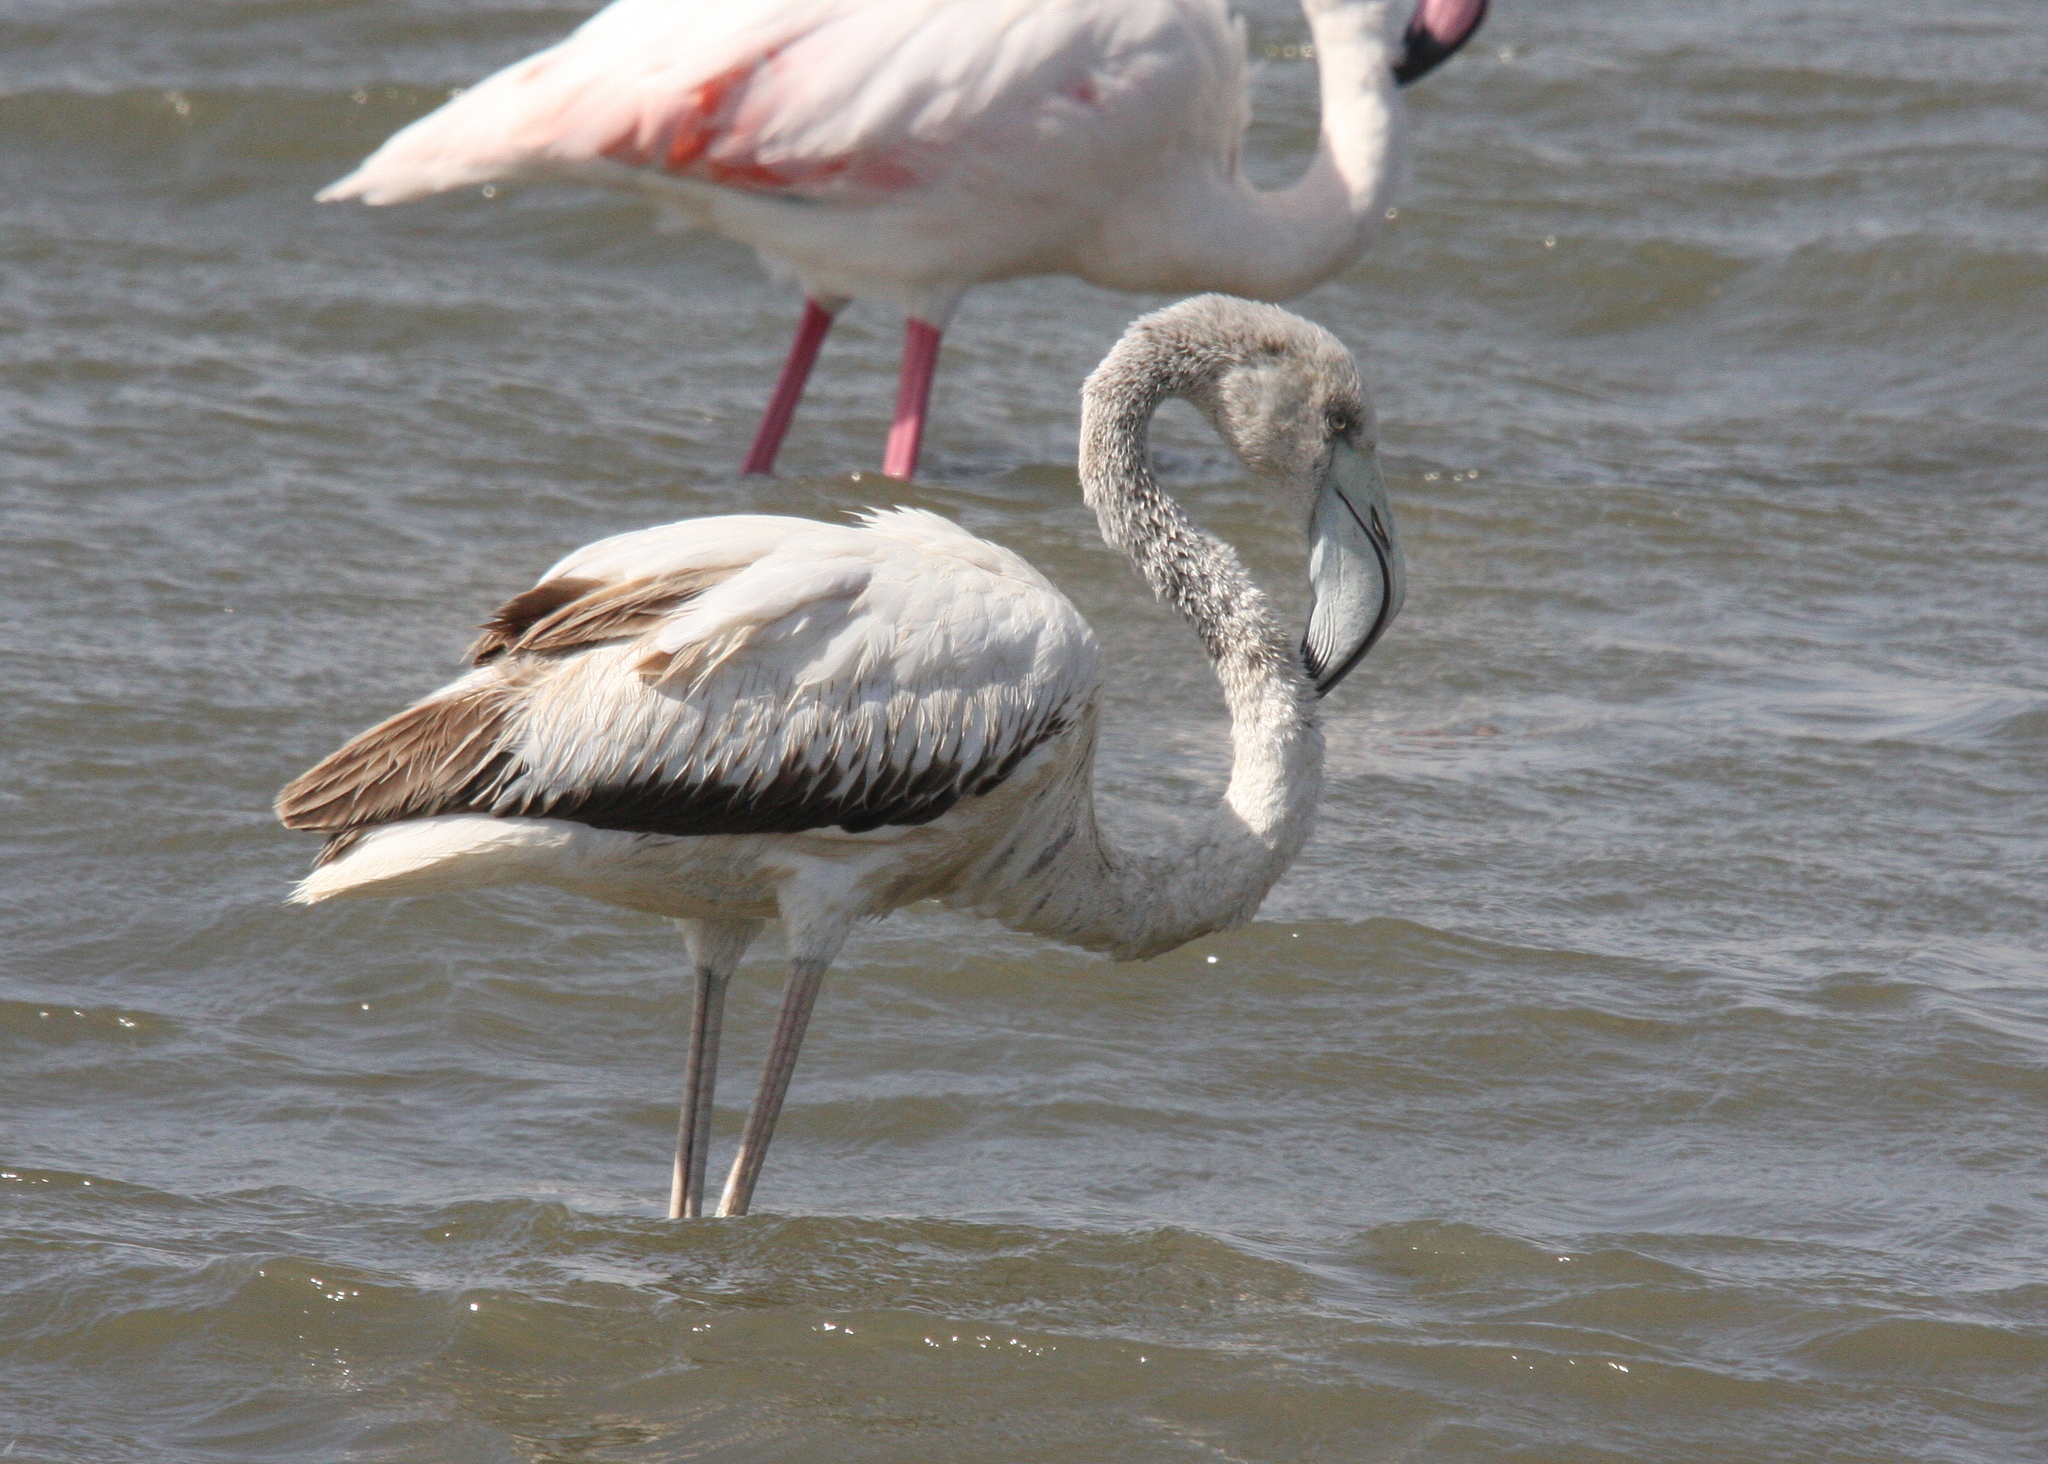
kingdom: Animalia
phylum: Chordata
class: Aves
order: Phoenicopteriformes
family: Phoenicopteridae
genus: Phoenicopterus
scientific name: Phoenicopterus roseus
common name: Greater flamingo
